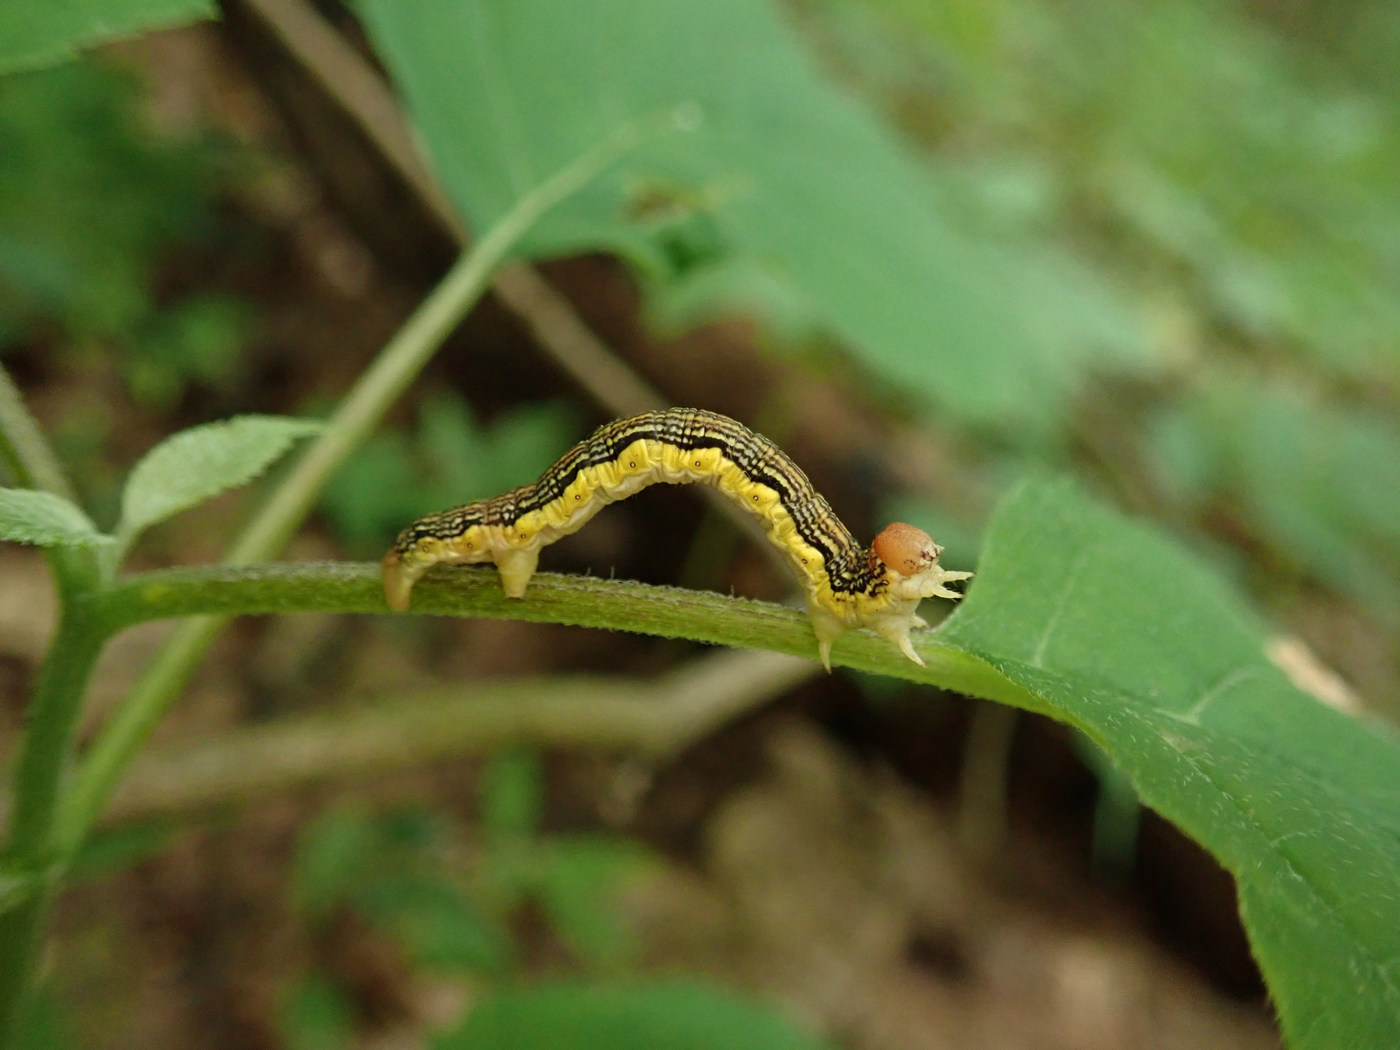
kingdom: Animalia
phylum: Arthropoda
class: Insecta
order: Lepidoptera
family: Geometridae
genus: Erannis
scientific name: Erannis tiliaria
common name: Linden looper
